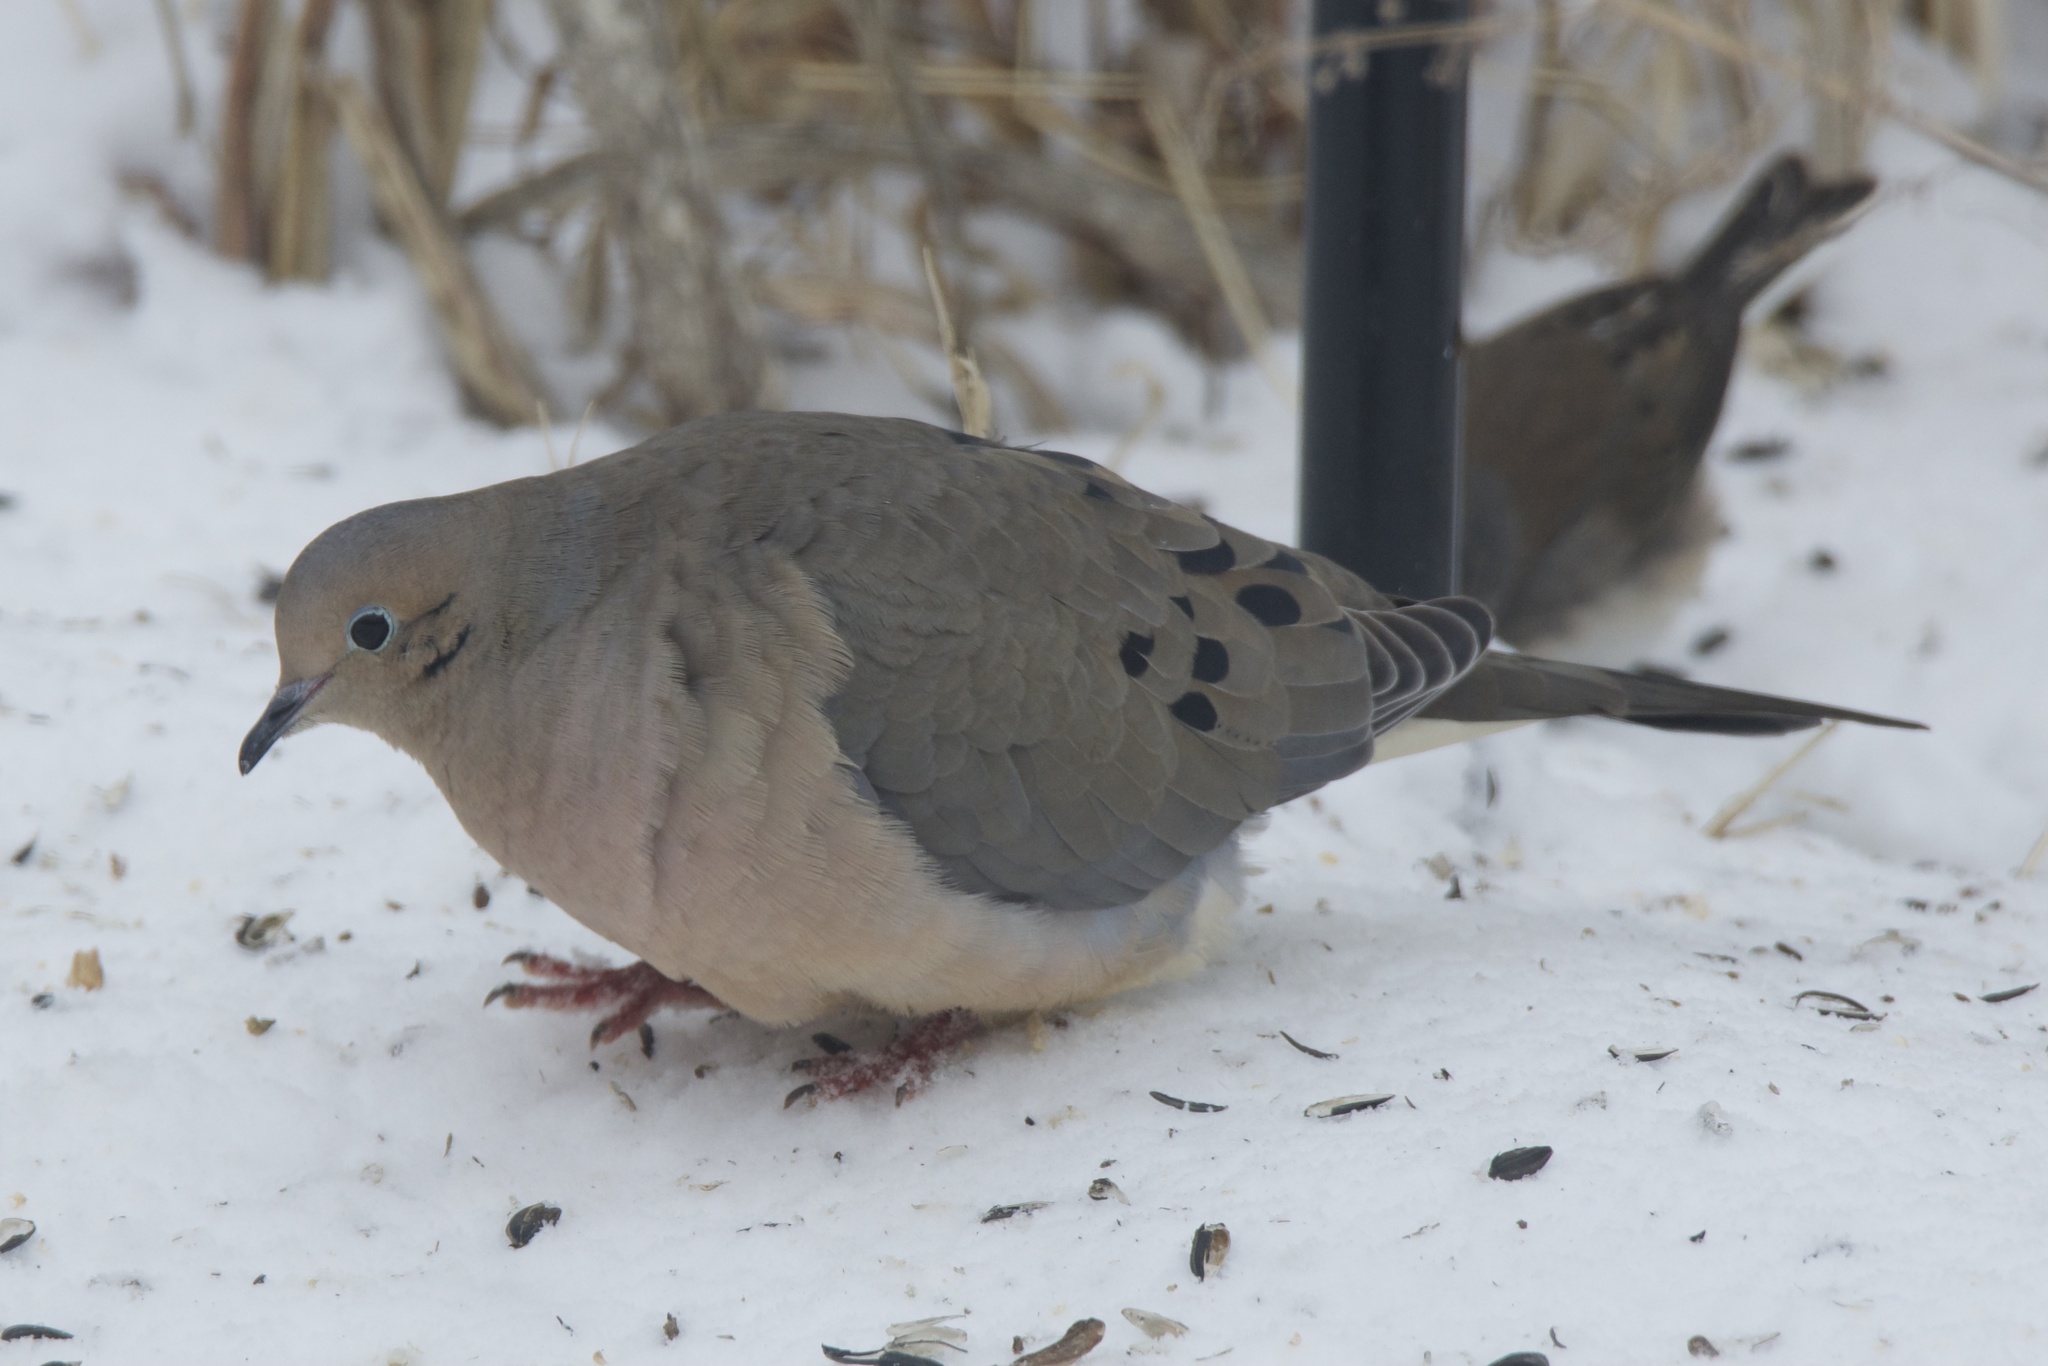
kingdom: Animalia
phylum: Chordata
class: Aves
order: Columbiformes
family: Columbidae
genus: Zenaida
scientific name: Zenaida macroura
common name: Mourning dove
